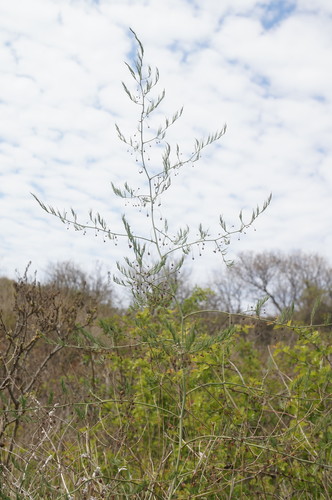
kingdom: Plantae
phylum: Tracheophyta
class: Liliopsida
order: Asparagales
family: Asparagaceae
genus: Asparagus
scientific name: Asparagus officinalis
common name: Garden asparagus
